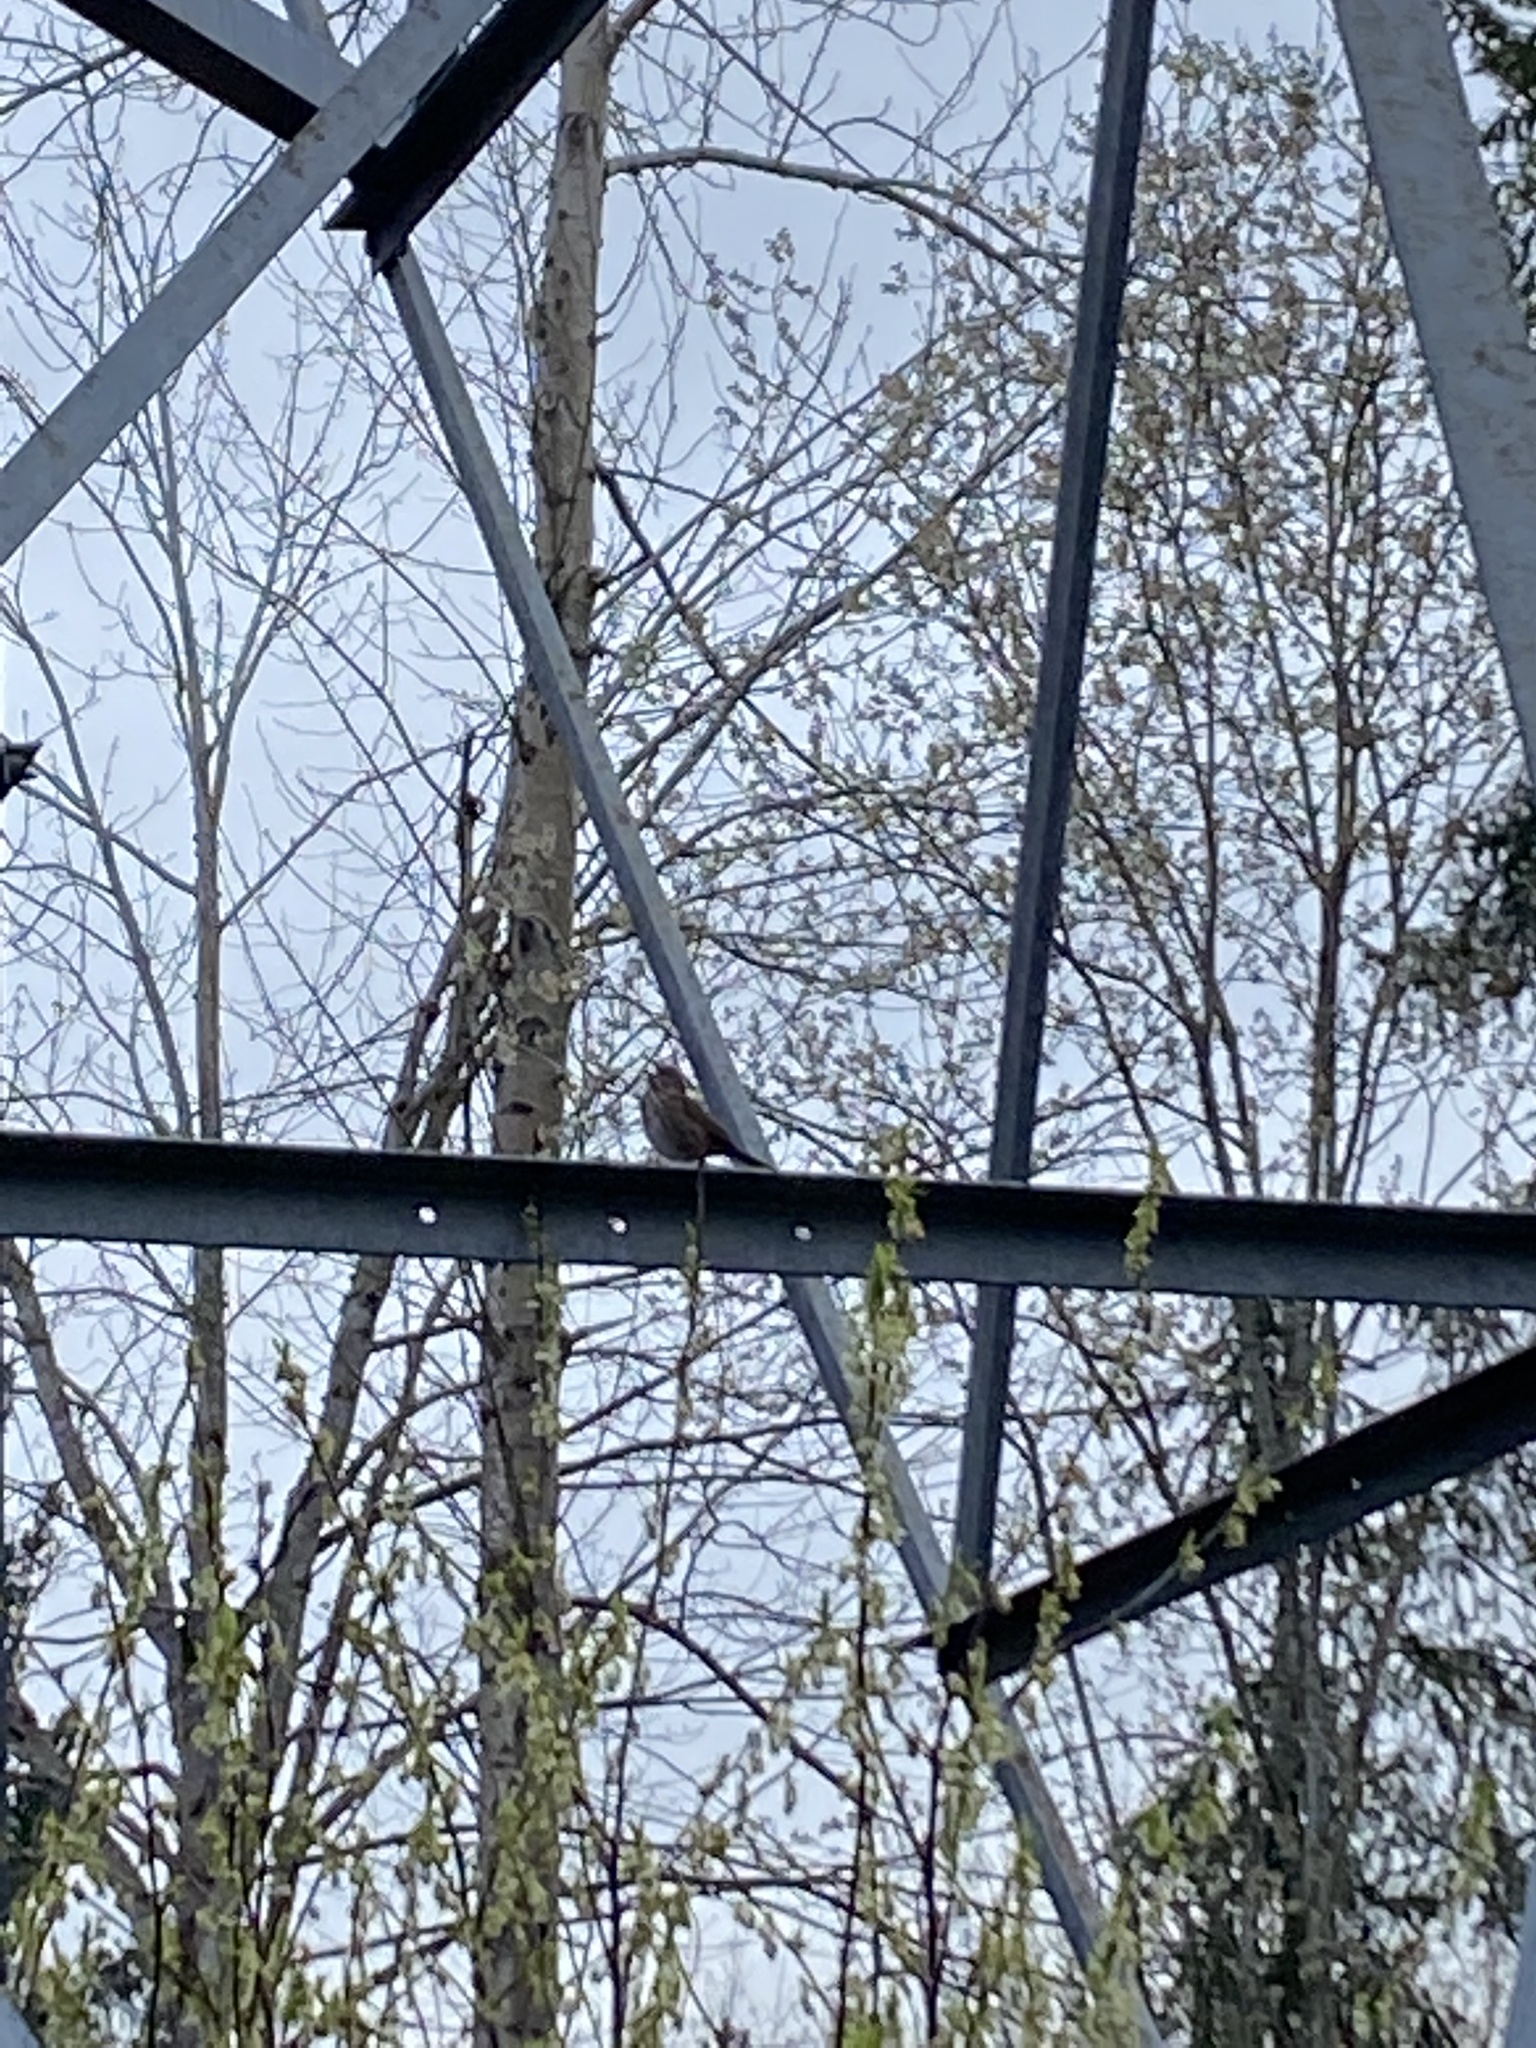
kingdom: Animalia
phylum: Chordata
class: Aves
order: Passeriformes
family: Passerellidae
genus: Melospiza
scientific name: Melospiza melodia
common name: Song sparrow
